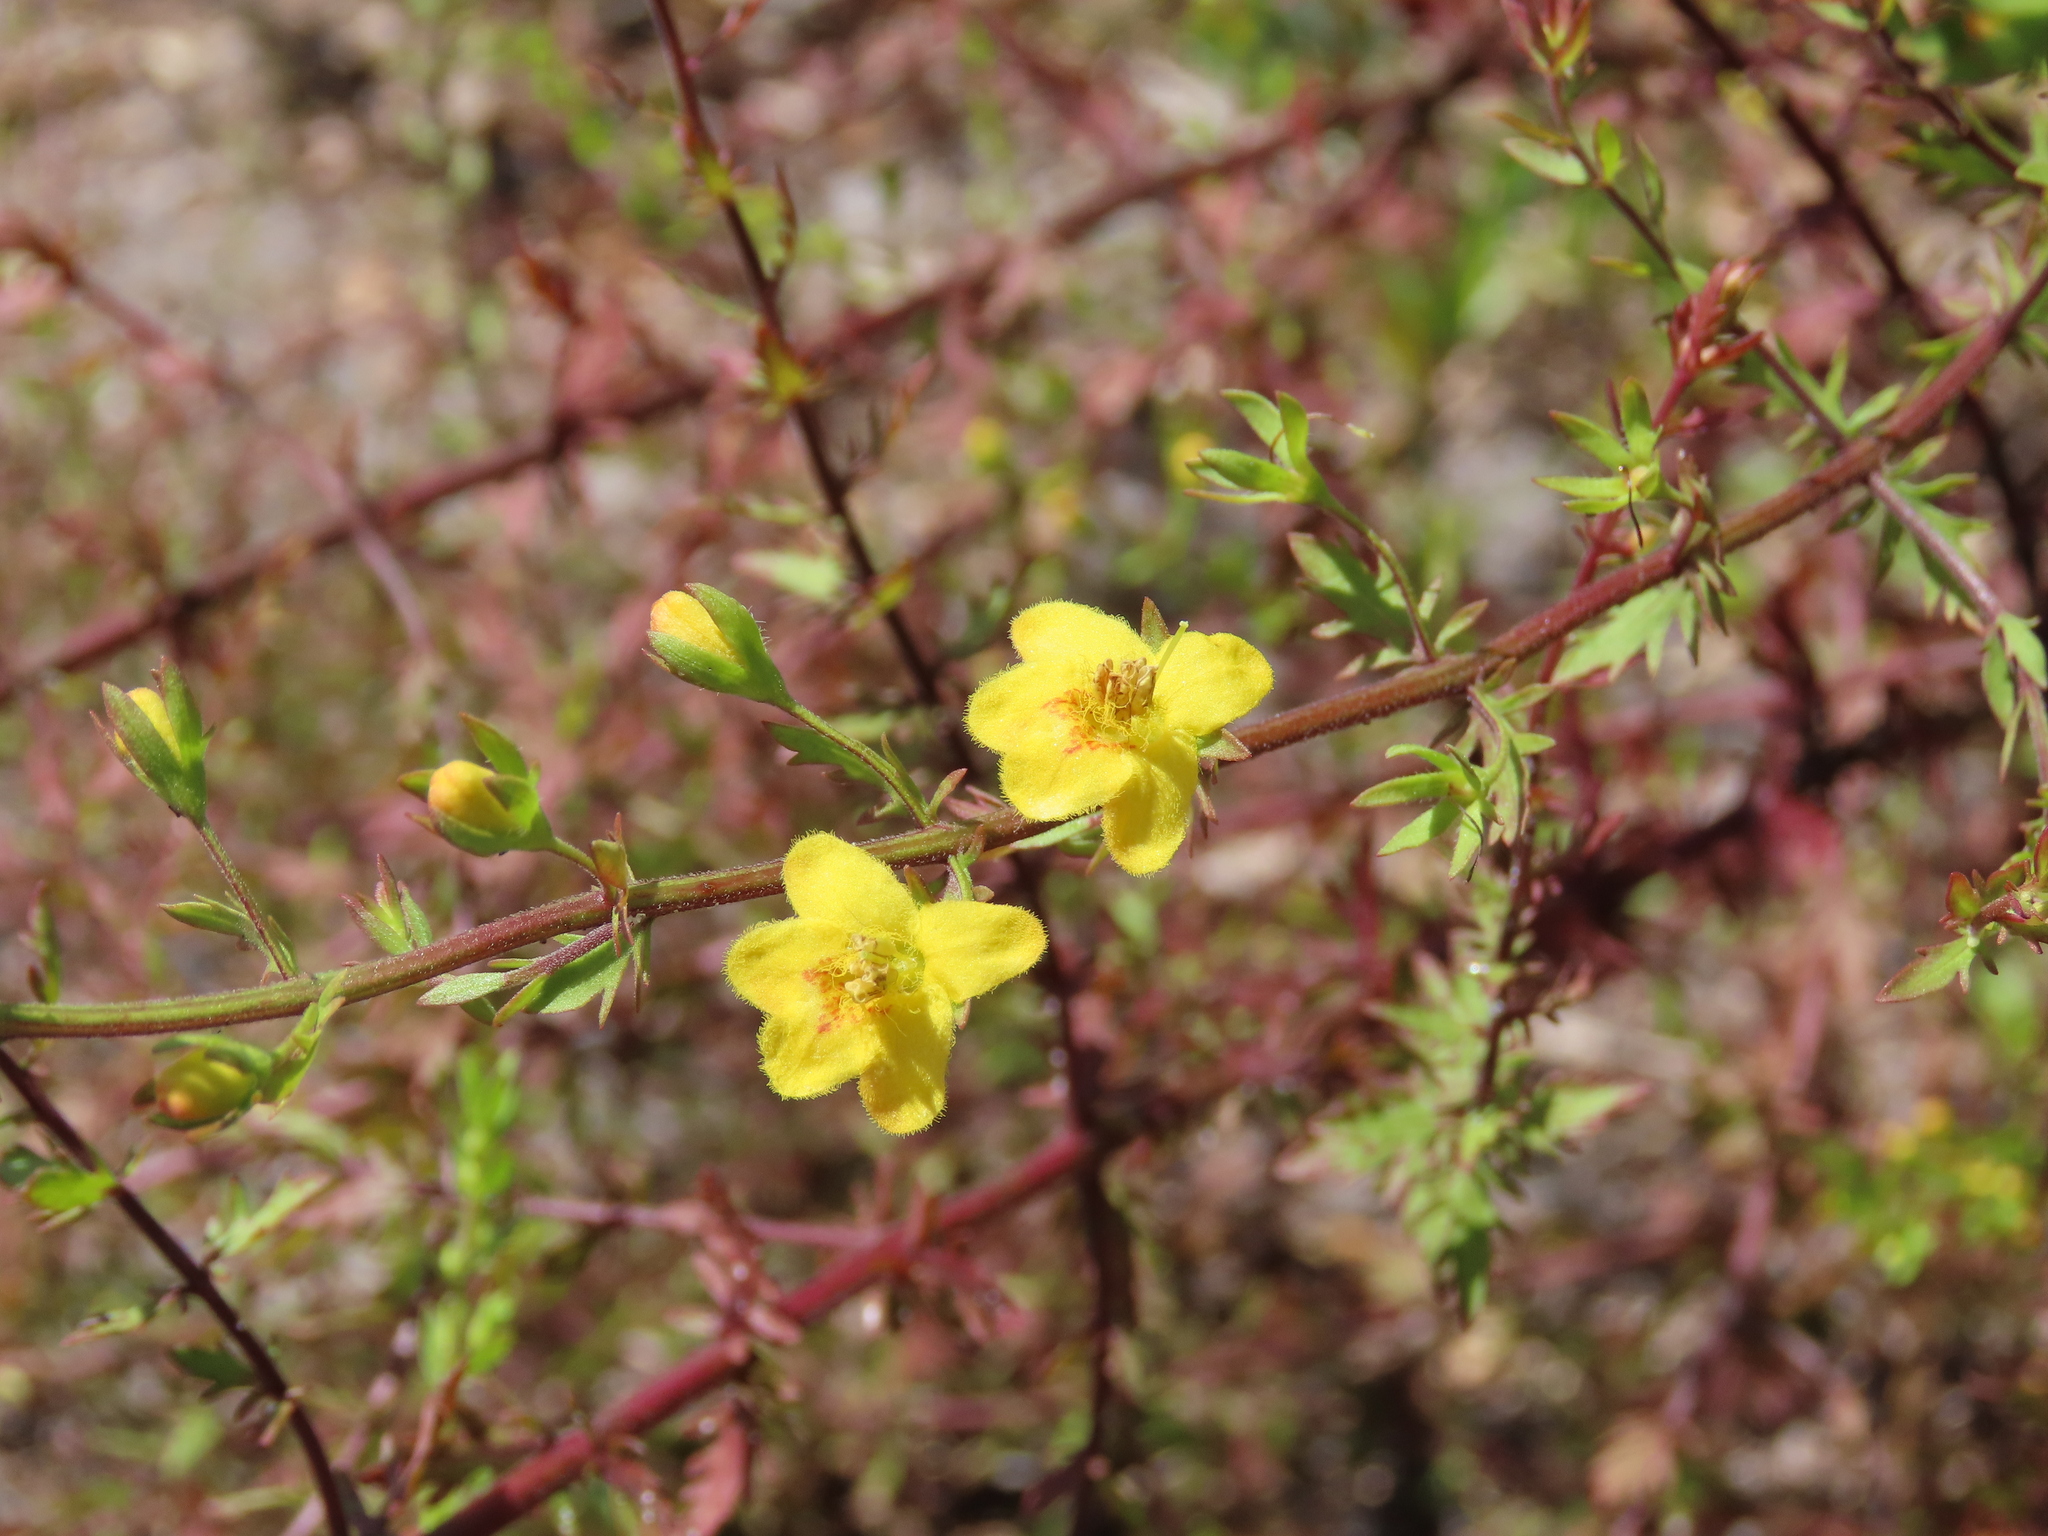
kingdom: Plantae
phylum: Tracheophyta
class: Magnoliopsida
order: Lamiales
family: Orobanchaceae
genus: Seymeria
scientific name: Seymeria pectinata
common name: Piedmont black-senna
